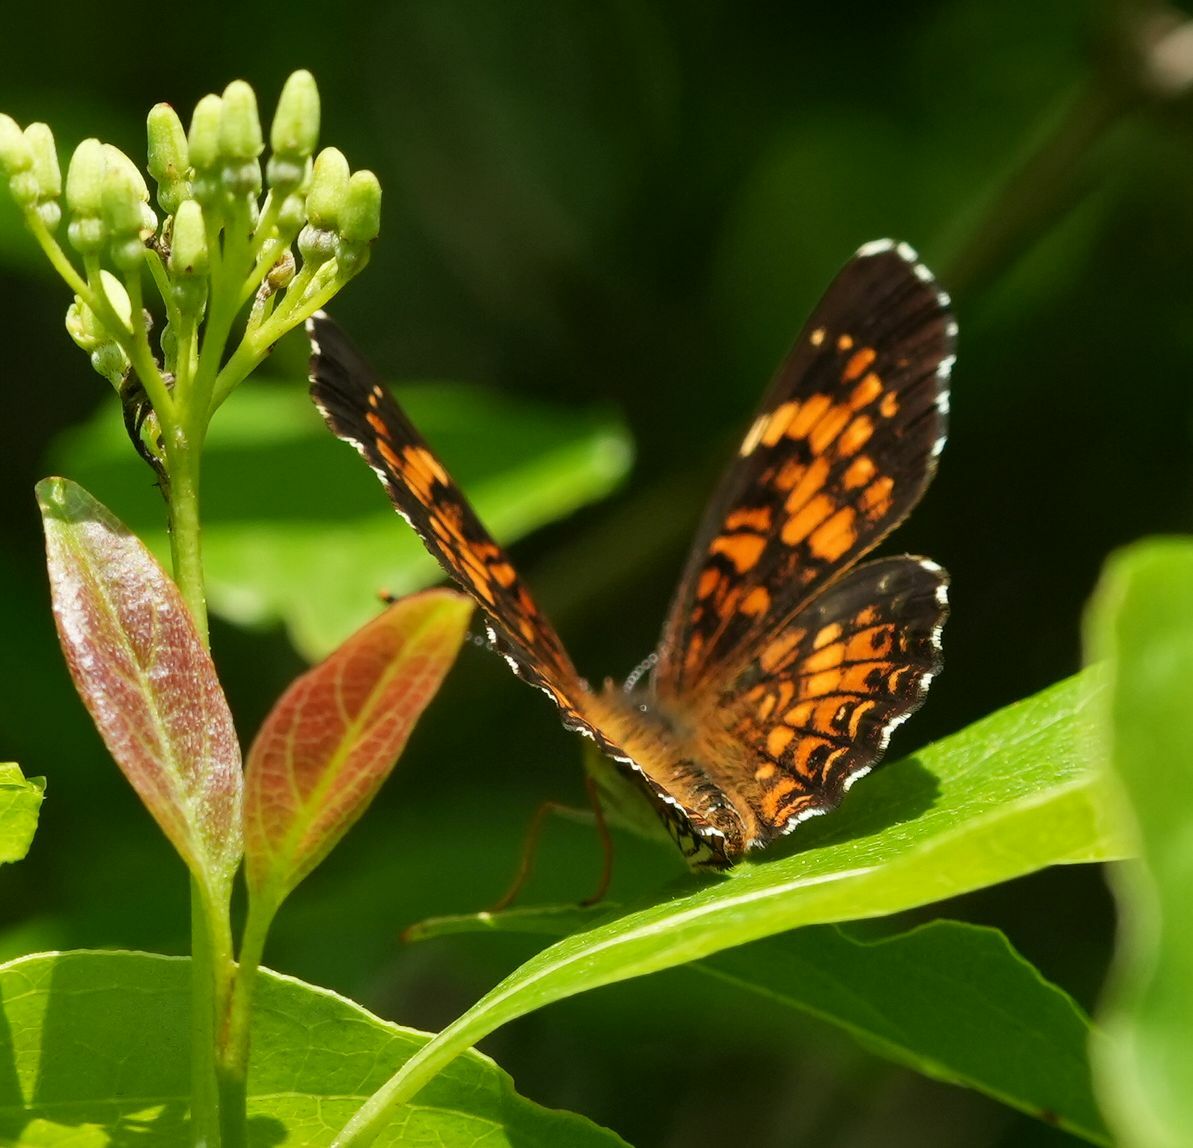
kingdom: Animalia
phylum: Arthropoda
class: Insecta
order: Lepidoptera
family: Nymphalidae
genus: Chlosyne
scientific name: Chlosyne harrisii
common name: Harris's checkerspot
